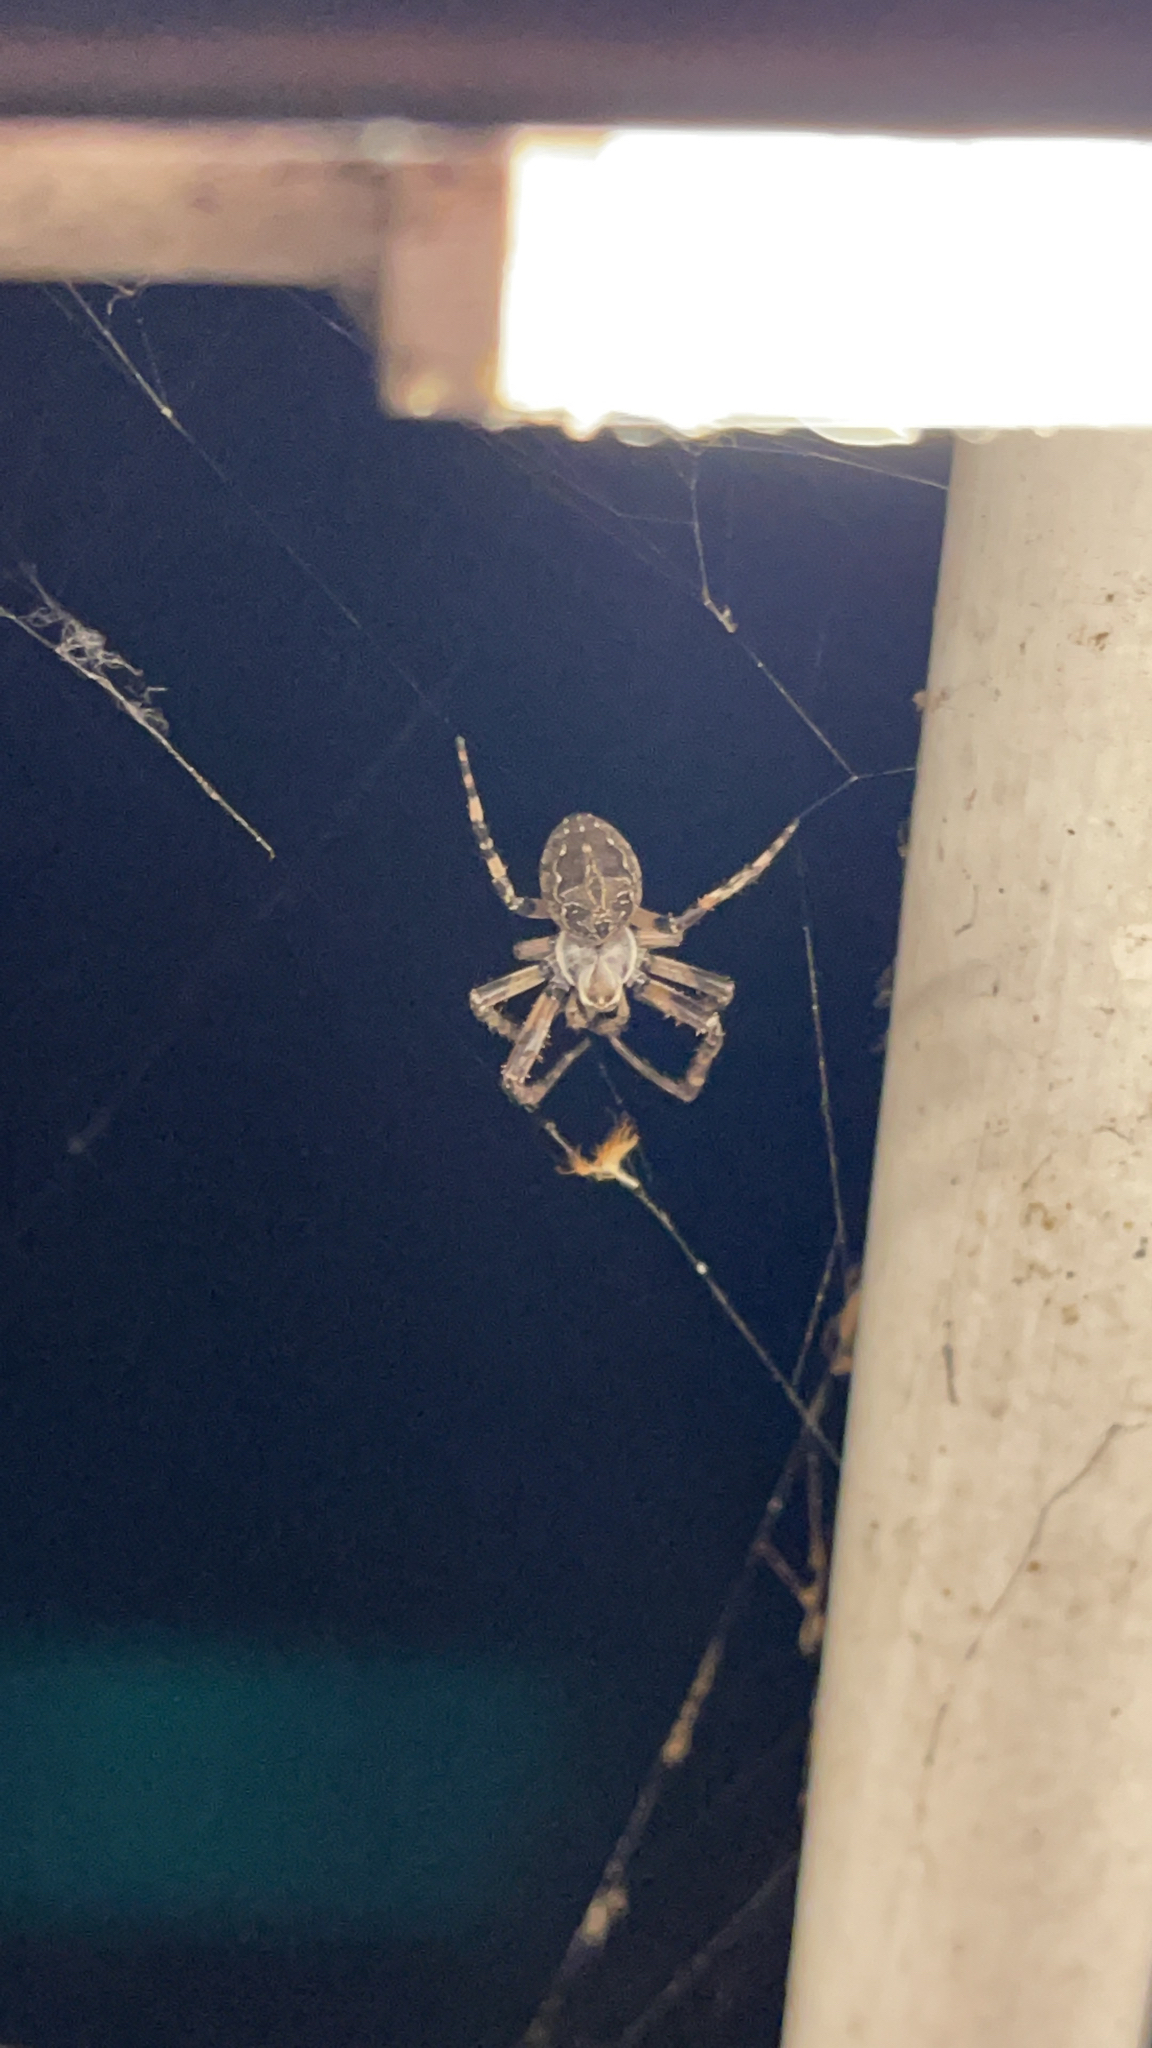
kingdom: Animalia
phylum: Arthropoda
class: Arachnida
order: Araneae
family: Araneidae
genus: Larinioides
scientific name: Larinioides sclopetarius
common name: Bridge orbweaver
